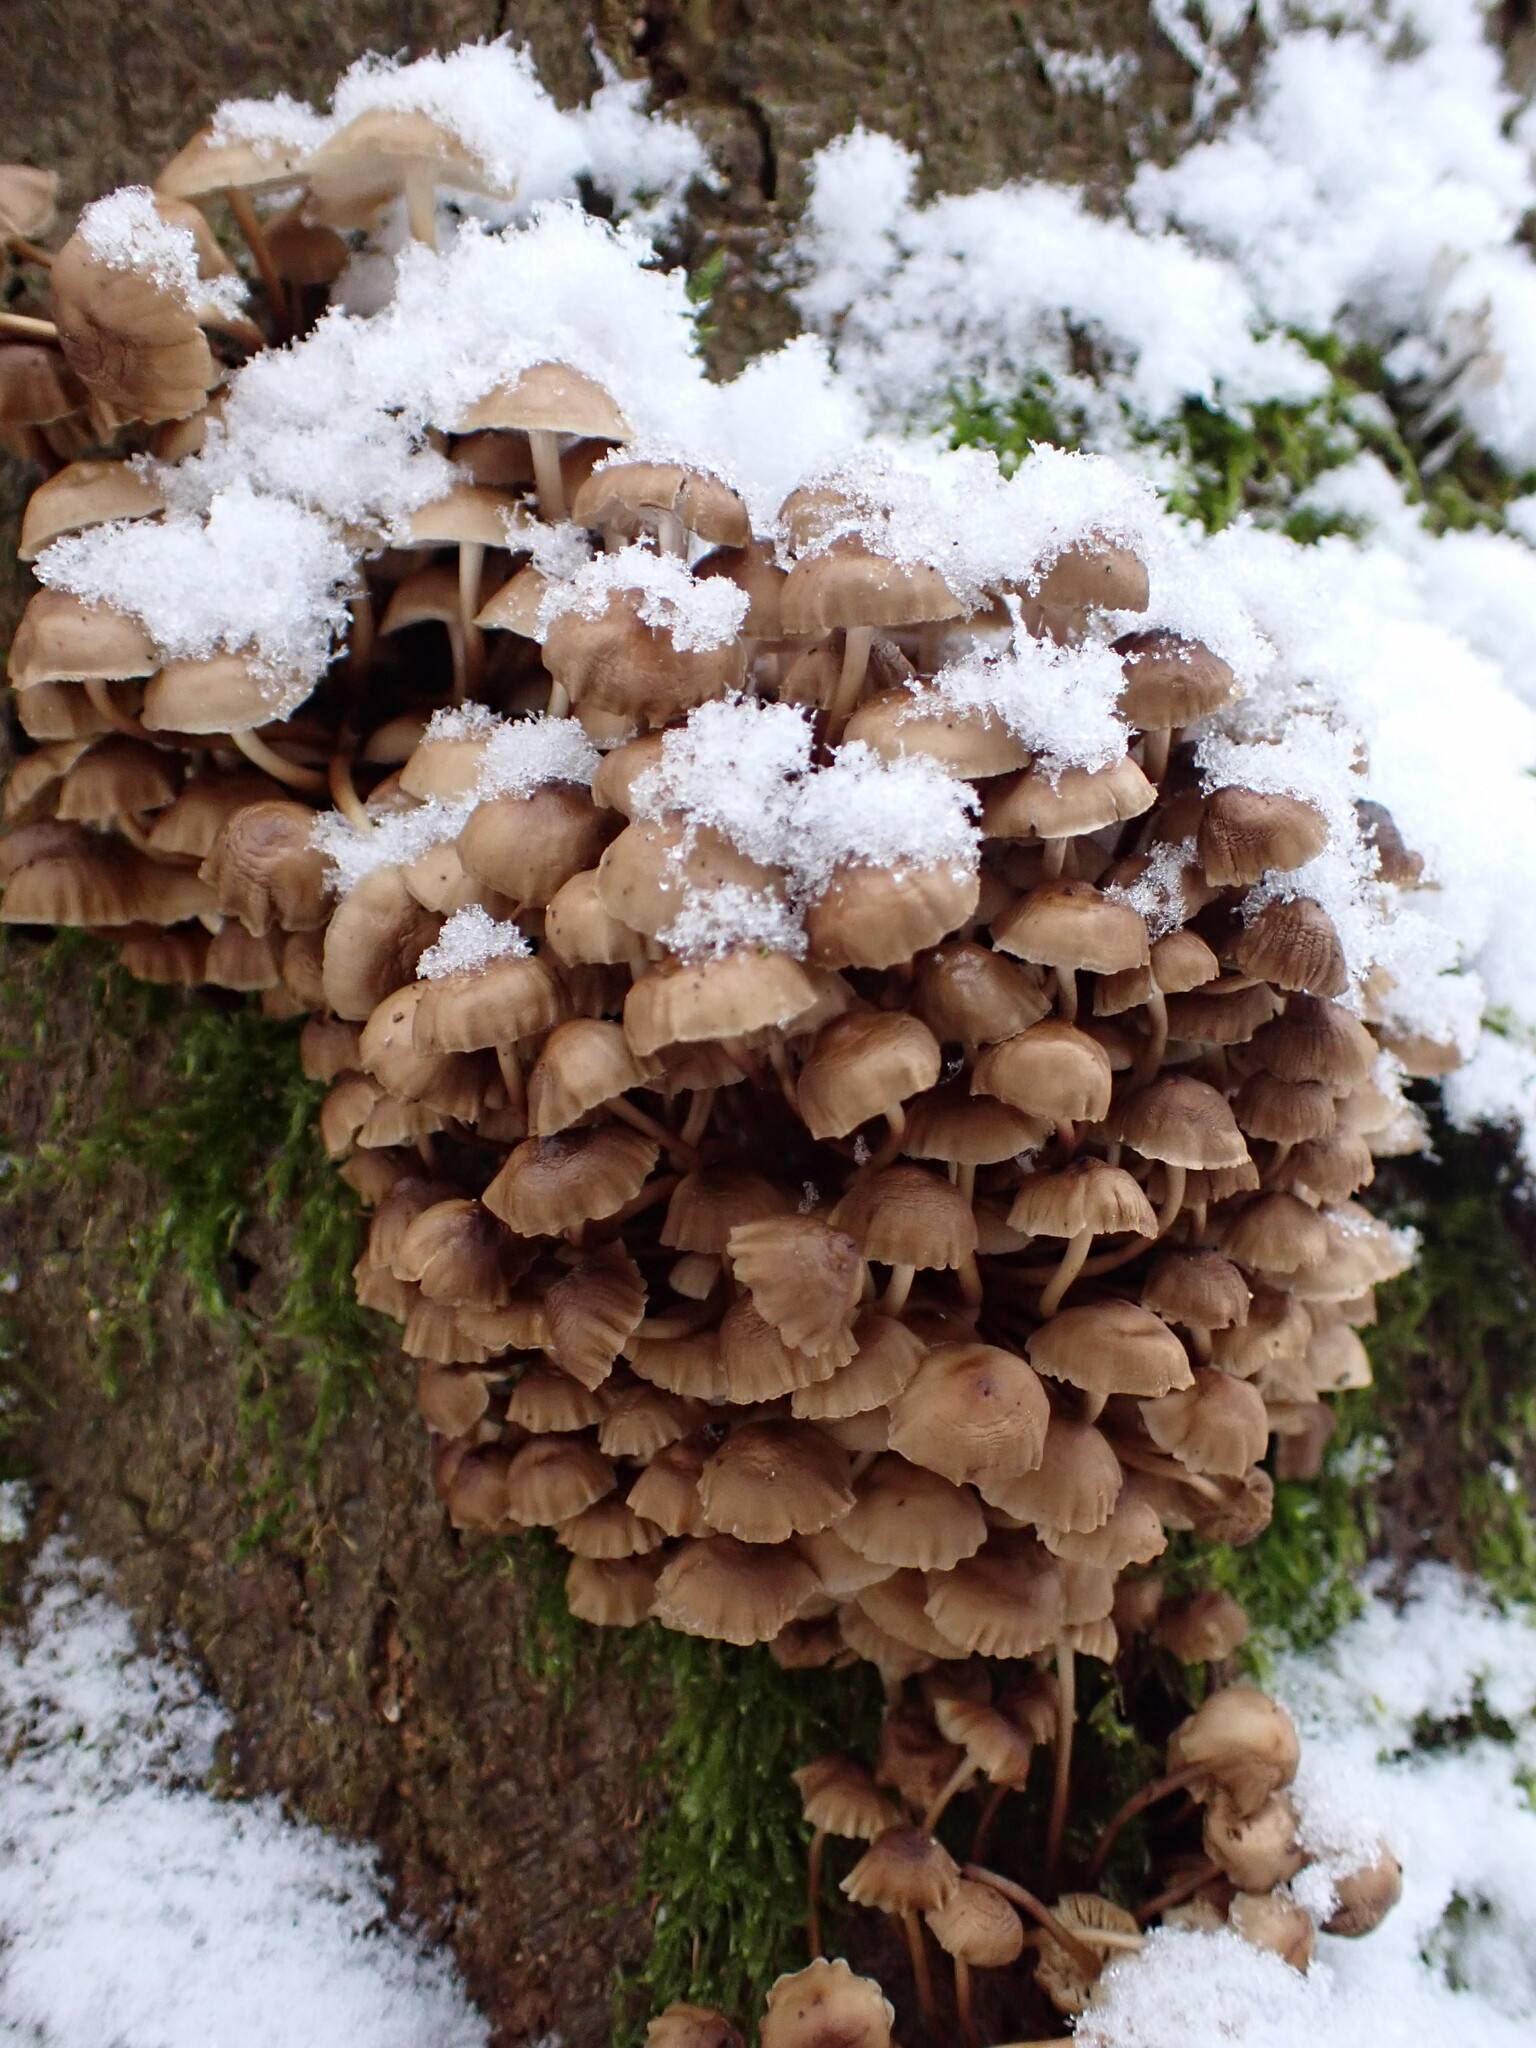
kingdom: Fungi
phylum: Basidiomycota
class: Agaricomycetes
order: Agaricales
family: Mycenaceae
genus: Mycena
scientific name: Mycena tintinnabulum
